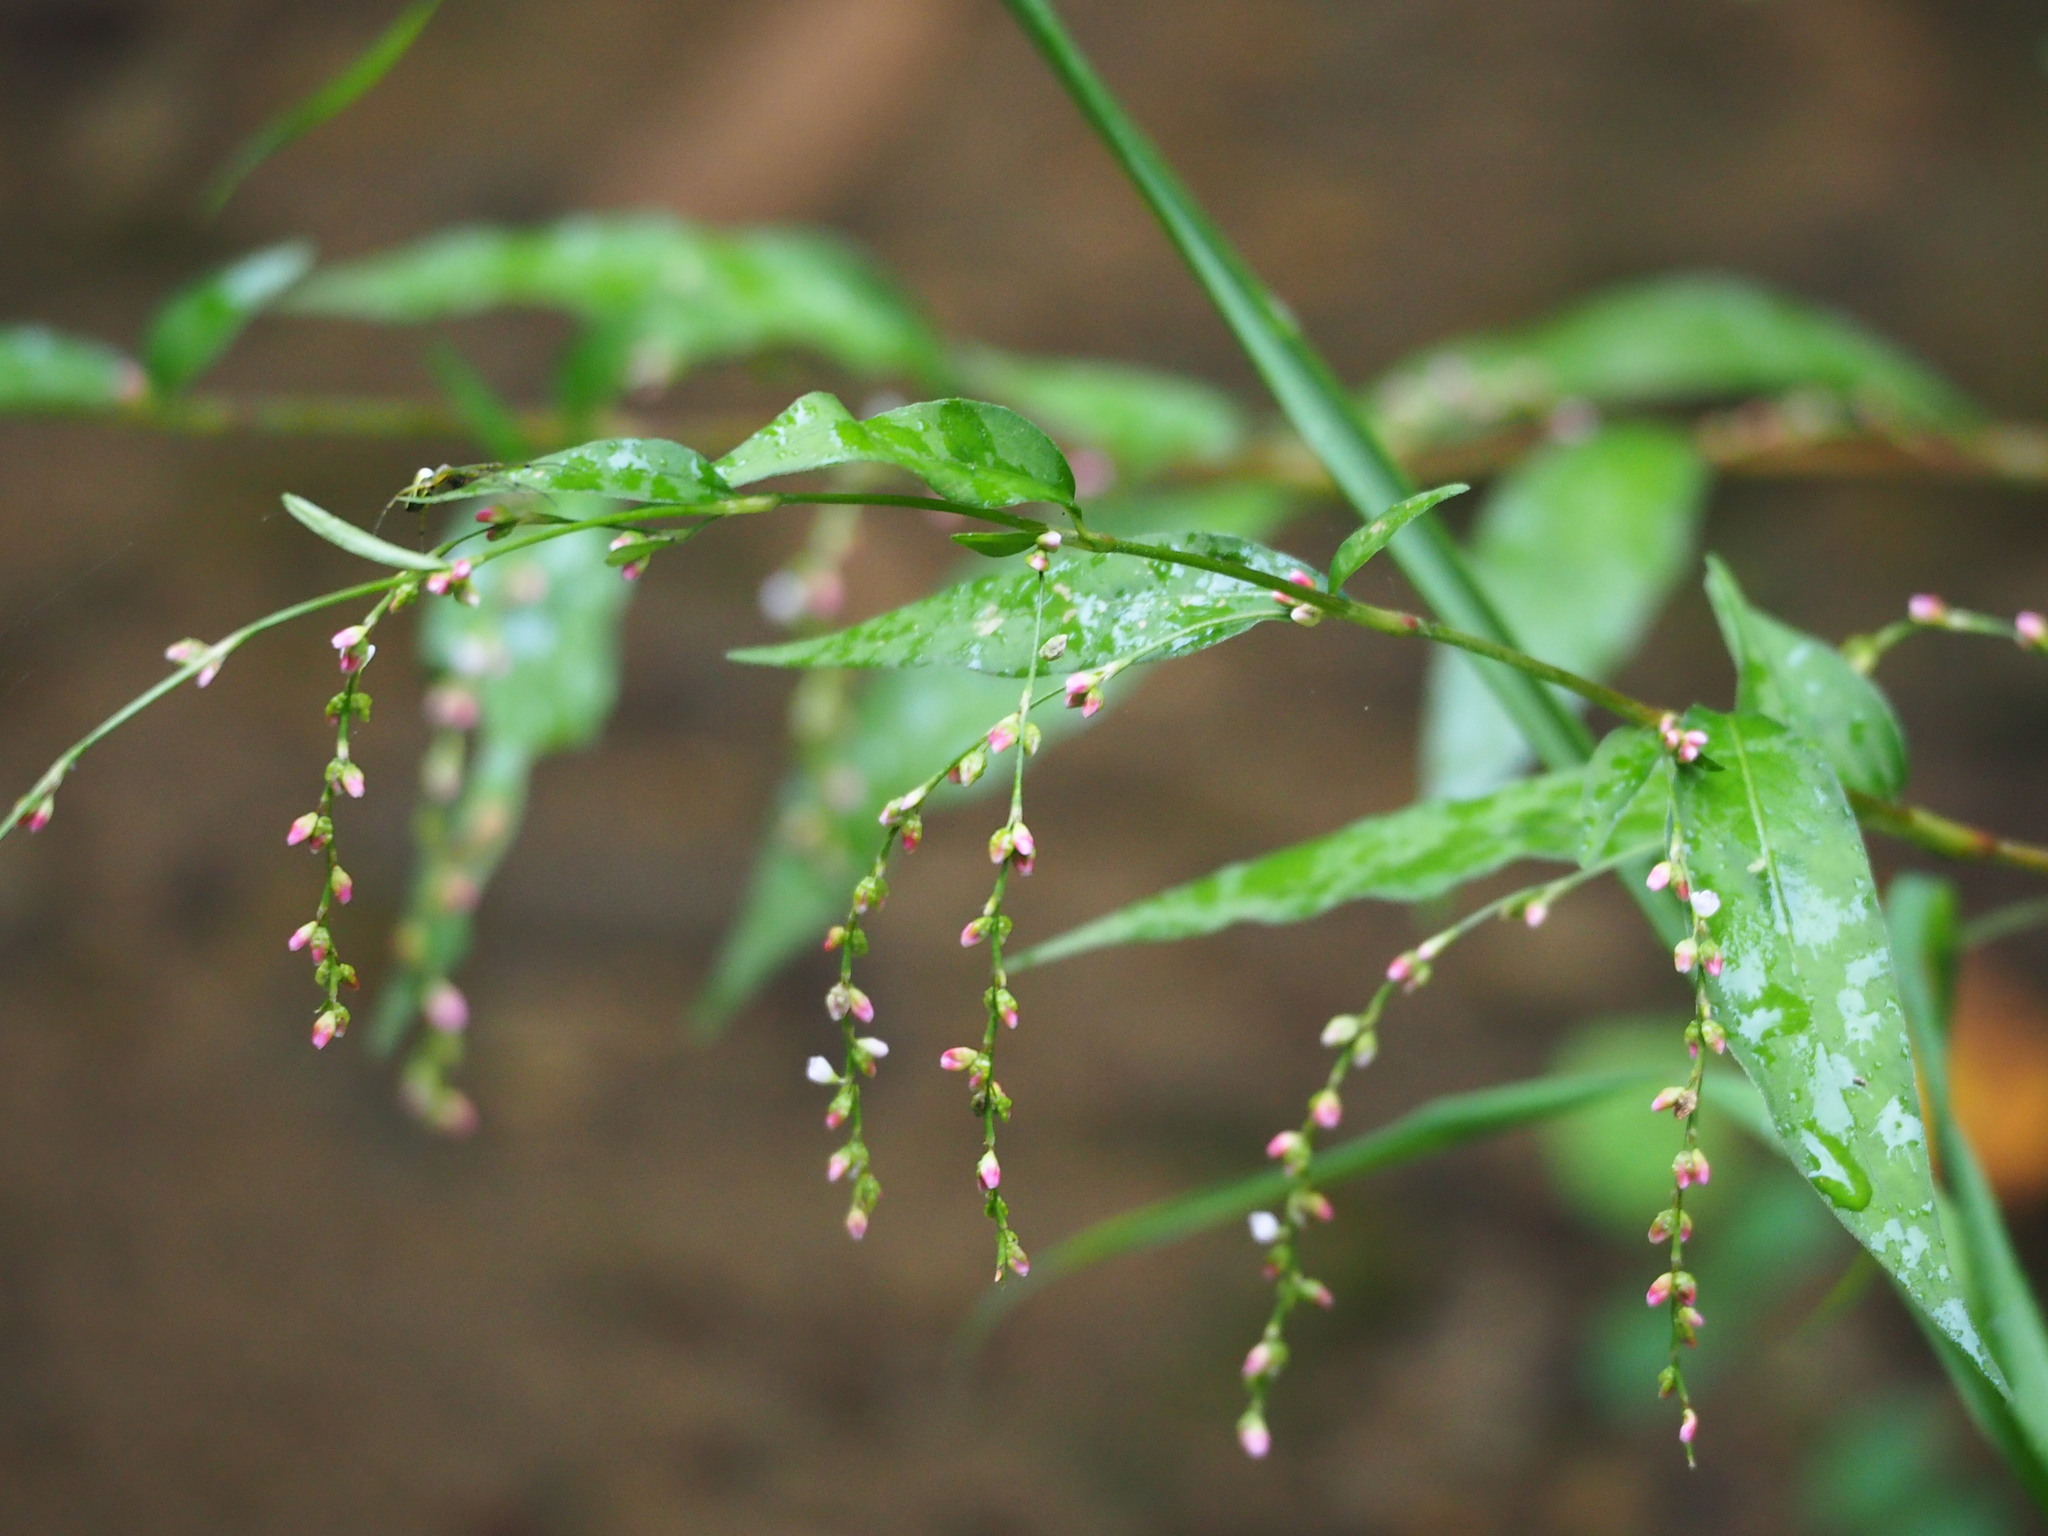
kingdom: Plantae
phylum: Tracheophyta
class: Magnoliopsida
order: Caryophyllales
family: Polygonaceae
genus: Persicaria
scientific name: Persicaria pubescens
